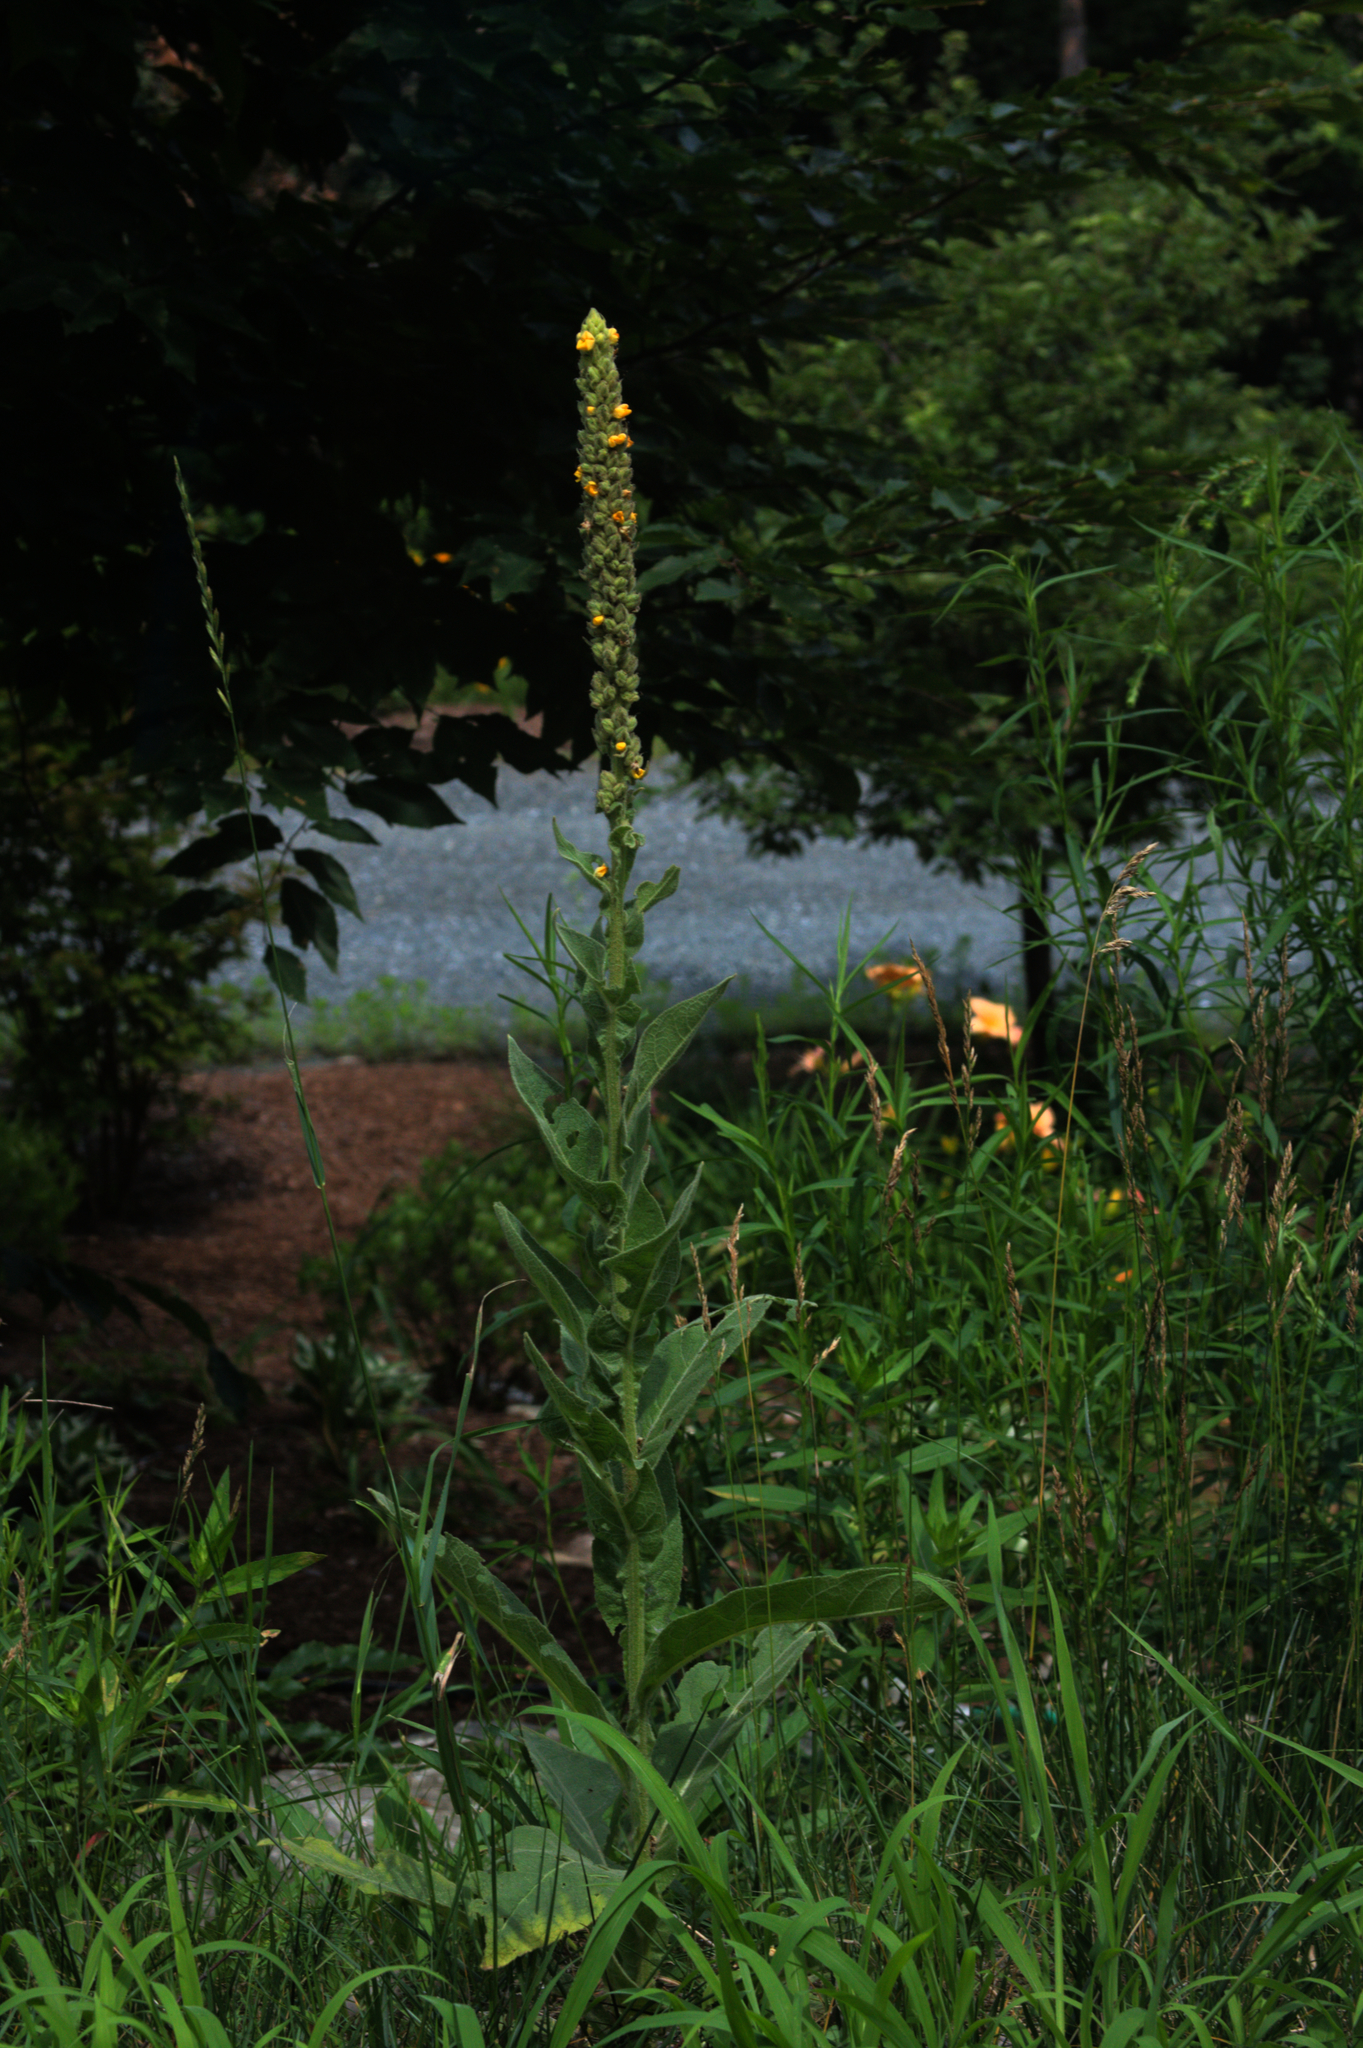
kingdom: Plantae
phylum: Tracheophyta
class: Magnoliopsida
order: Lamiales
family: Scrophulariaceae
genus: Verbascum
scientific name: Verbascum thapsus
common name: Common mullein
